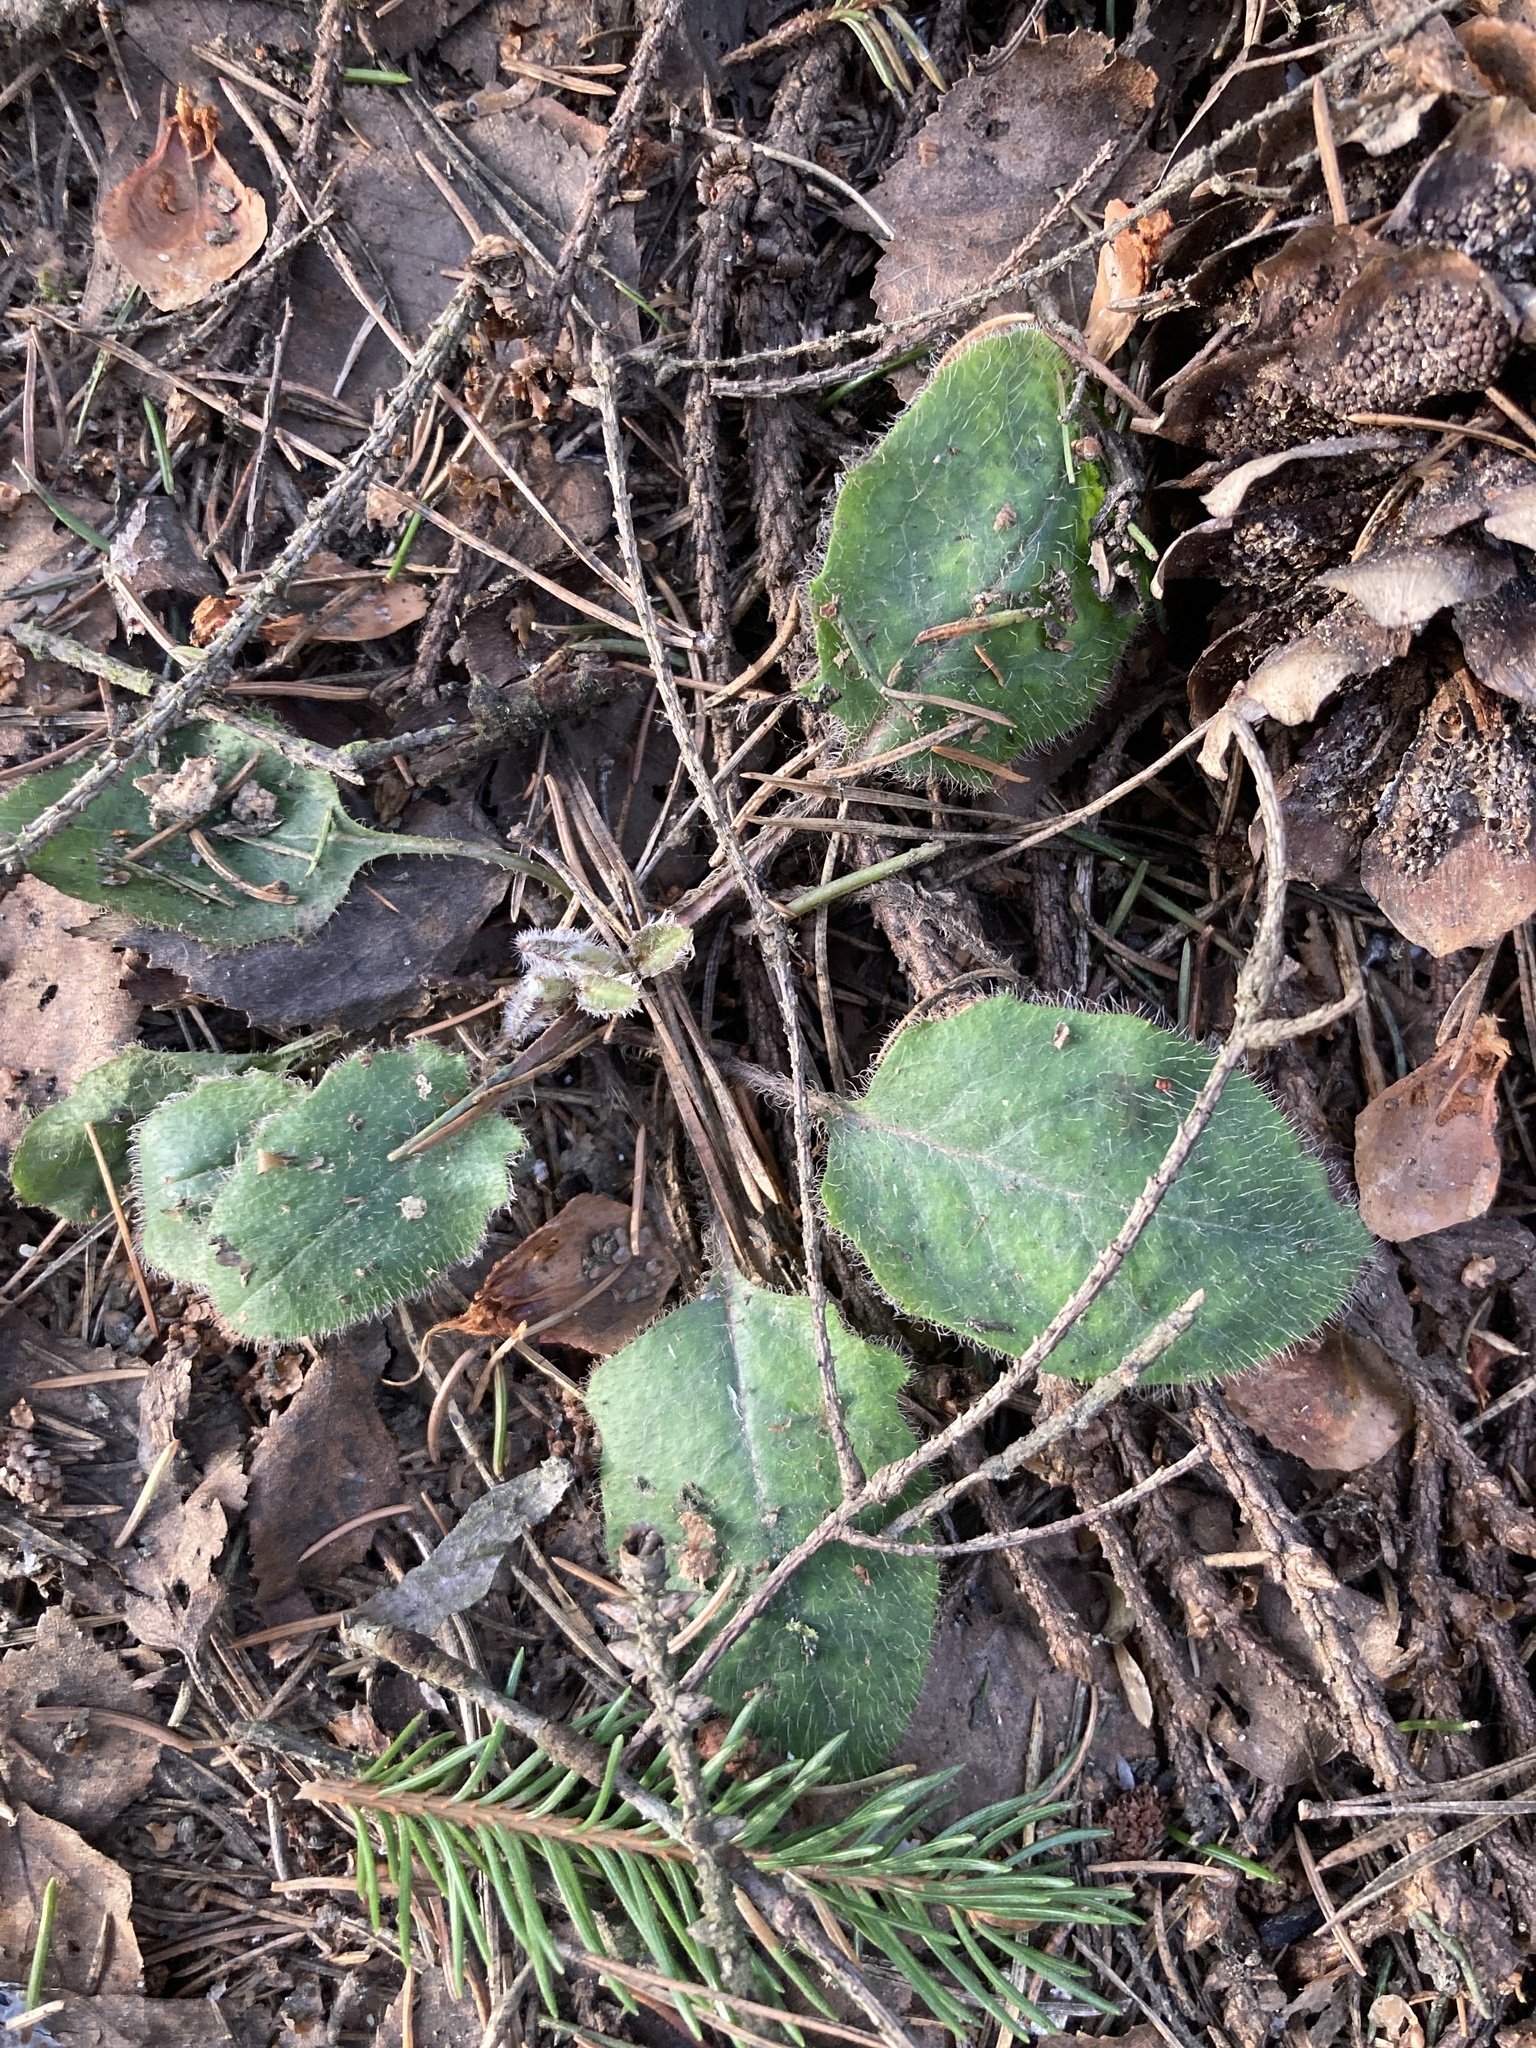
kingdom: Plantae
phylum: Tracheophyta
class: Magnoliopsida
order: Asterales
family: Asteraceae
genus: Hieracium
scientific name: Hieracium murorum
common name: Wall hawkweed
